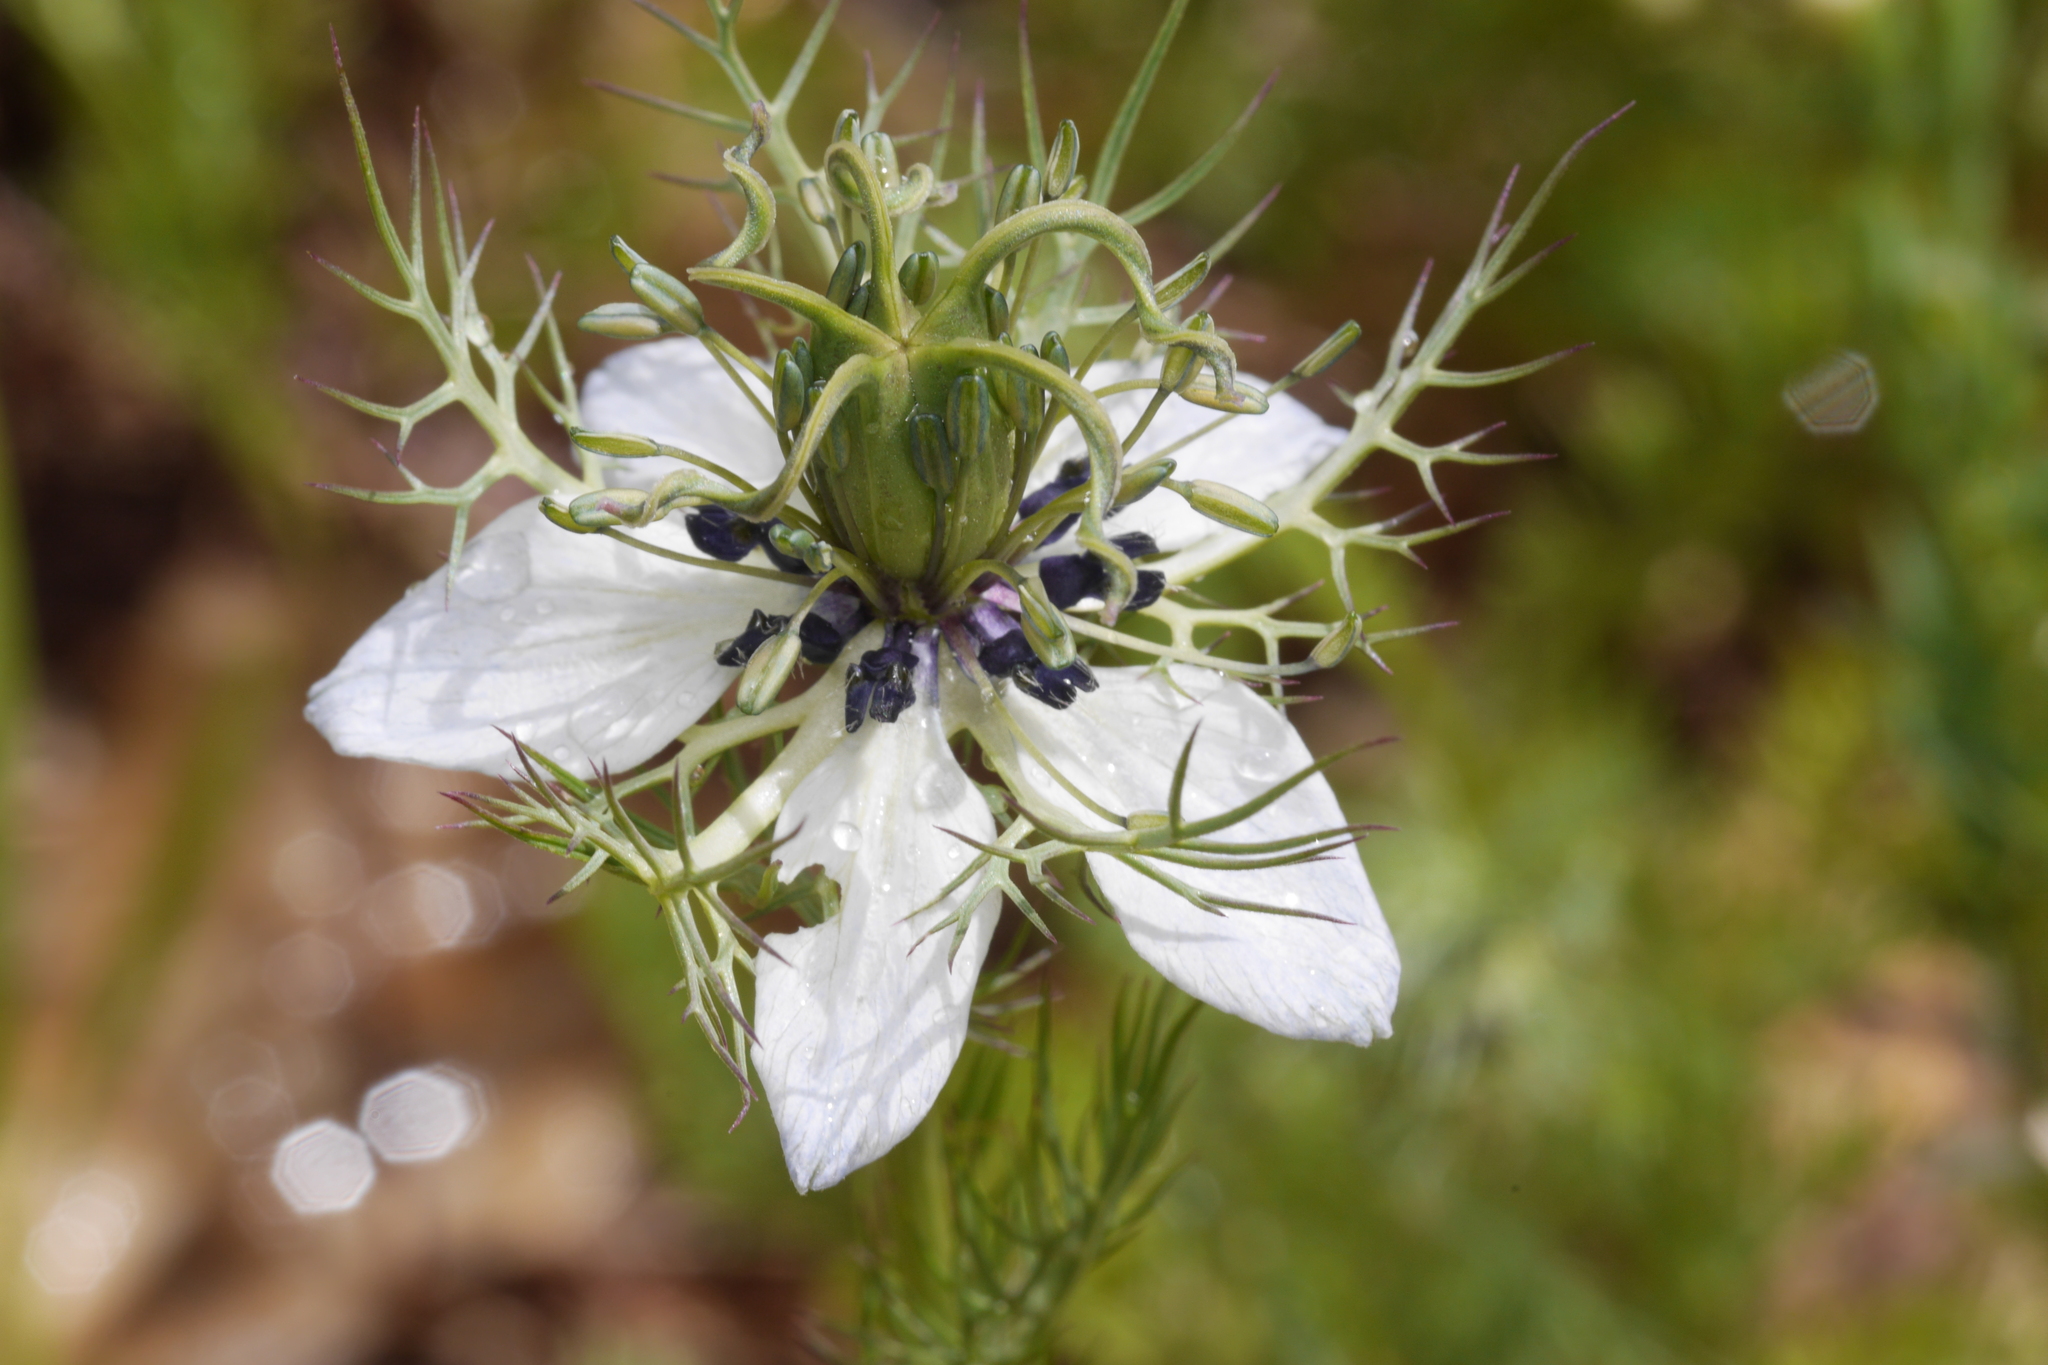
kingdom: Plantae
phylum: Tracheophyta
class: Magnoliopsida
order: Ranunculales
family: Ranunculaceae
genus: Nigella
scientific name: Nigella damascena
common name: Love-in-a-mist
